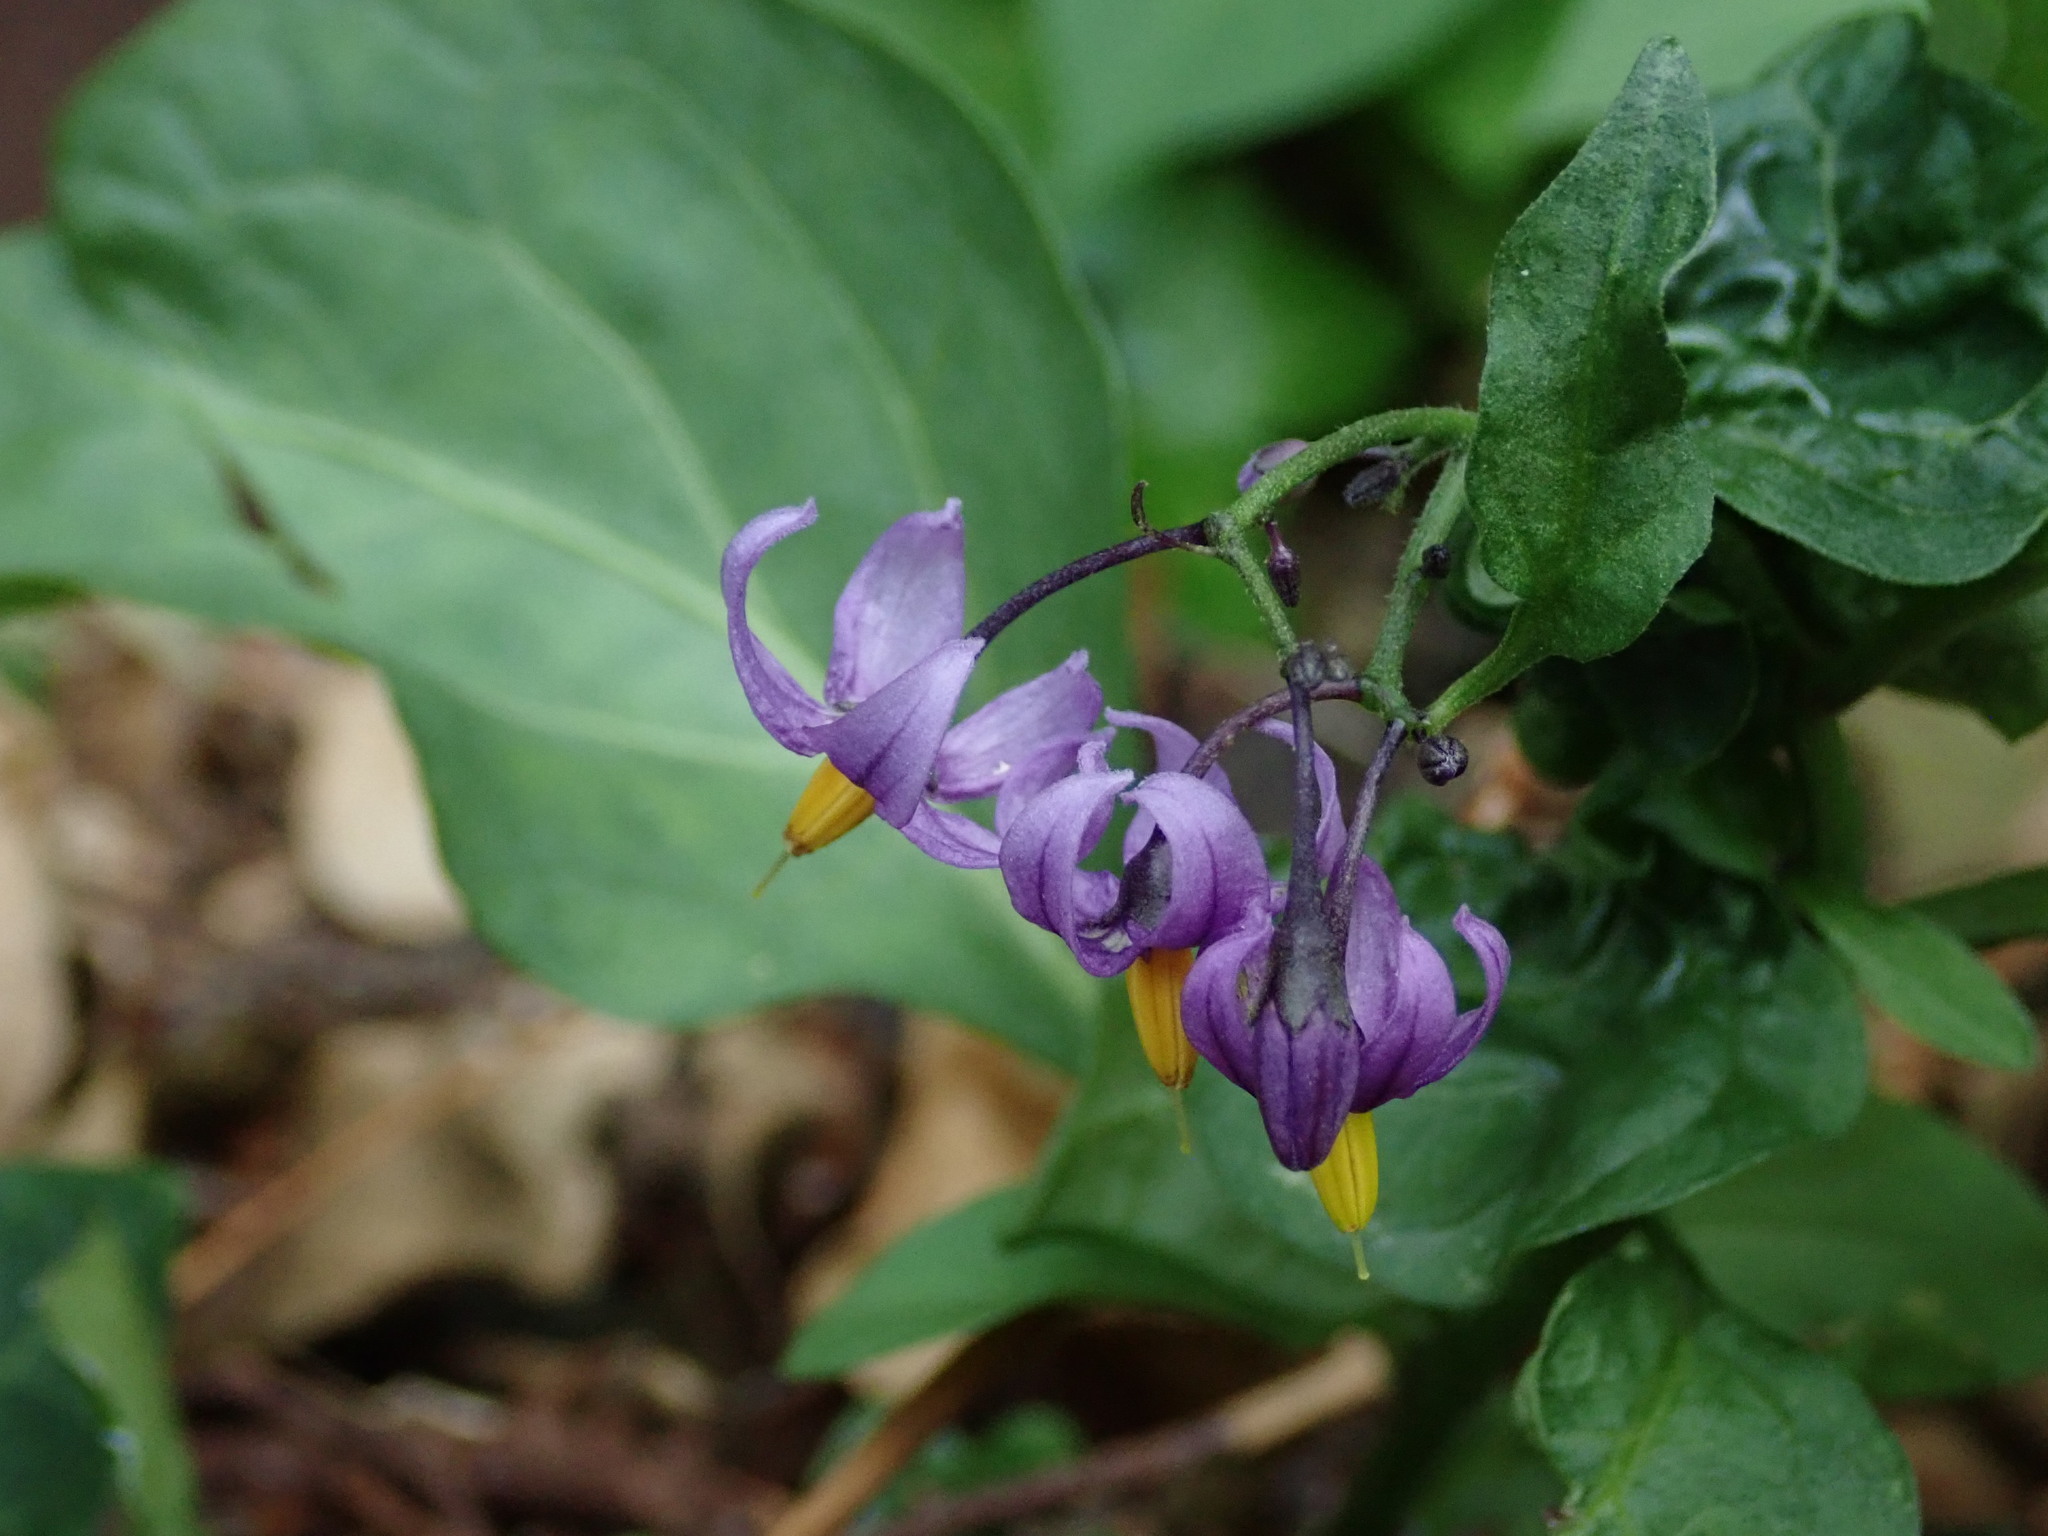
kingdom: Plantae
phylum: Tracheophyta
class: Magnoliopsida
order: Solanales
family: Solanaceae
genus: Solanum
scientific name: Solanum dulcamara
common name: Climbing nightshade
